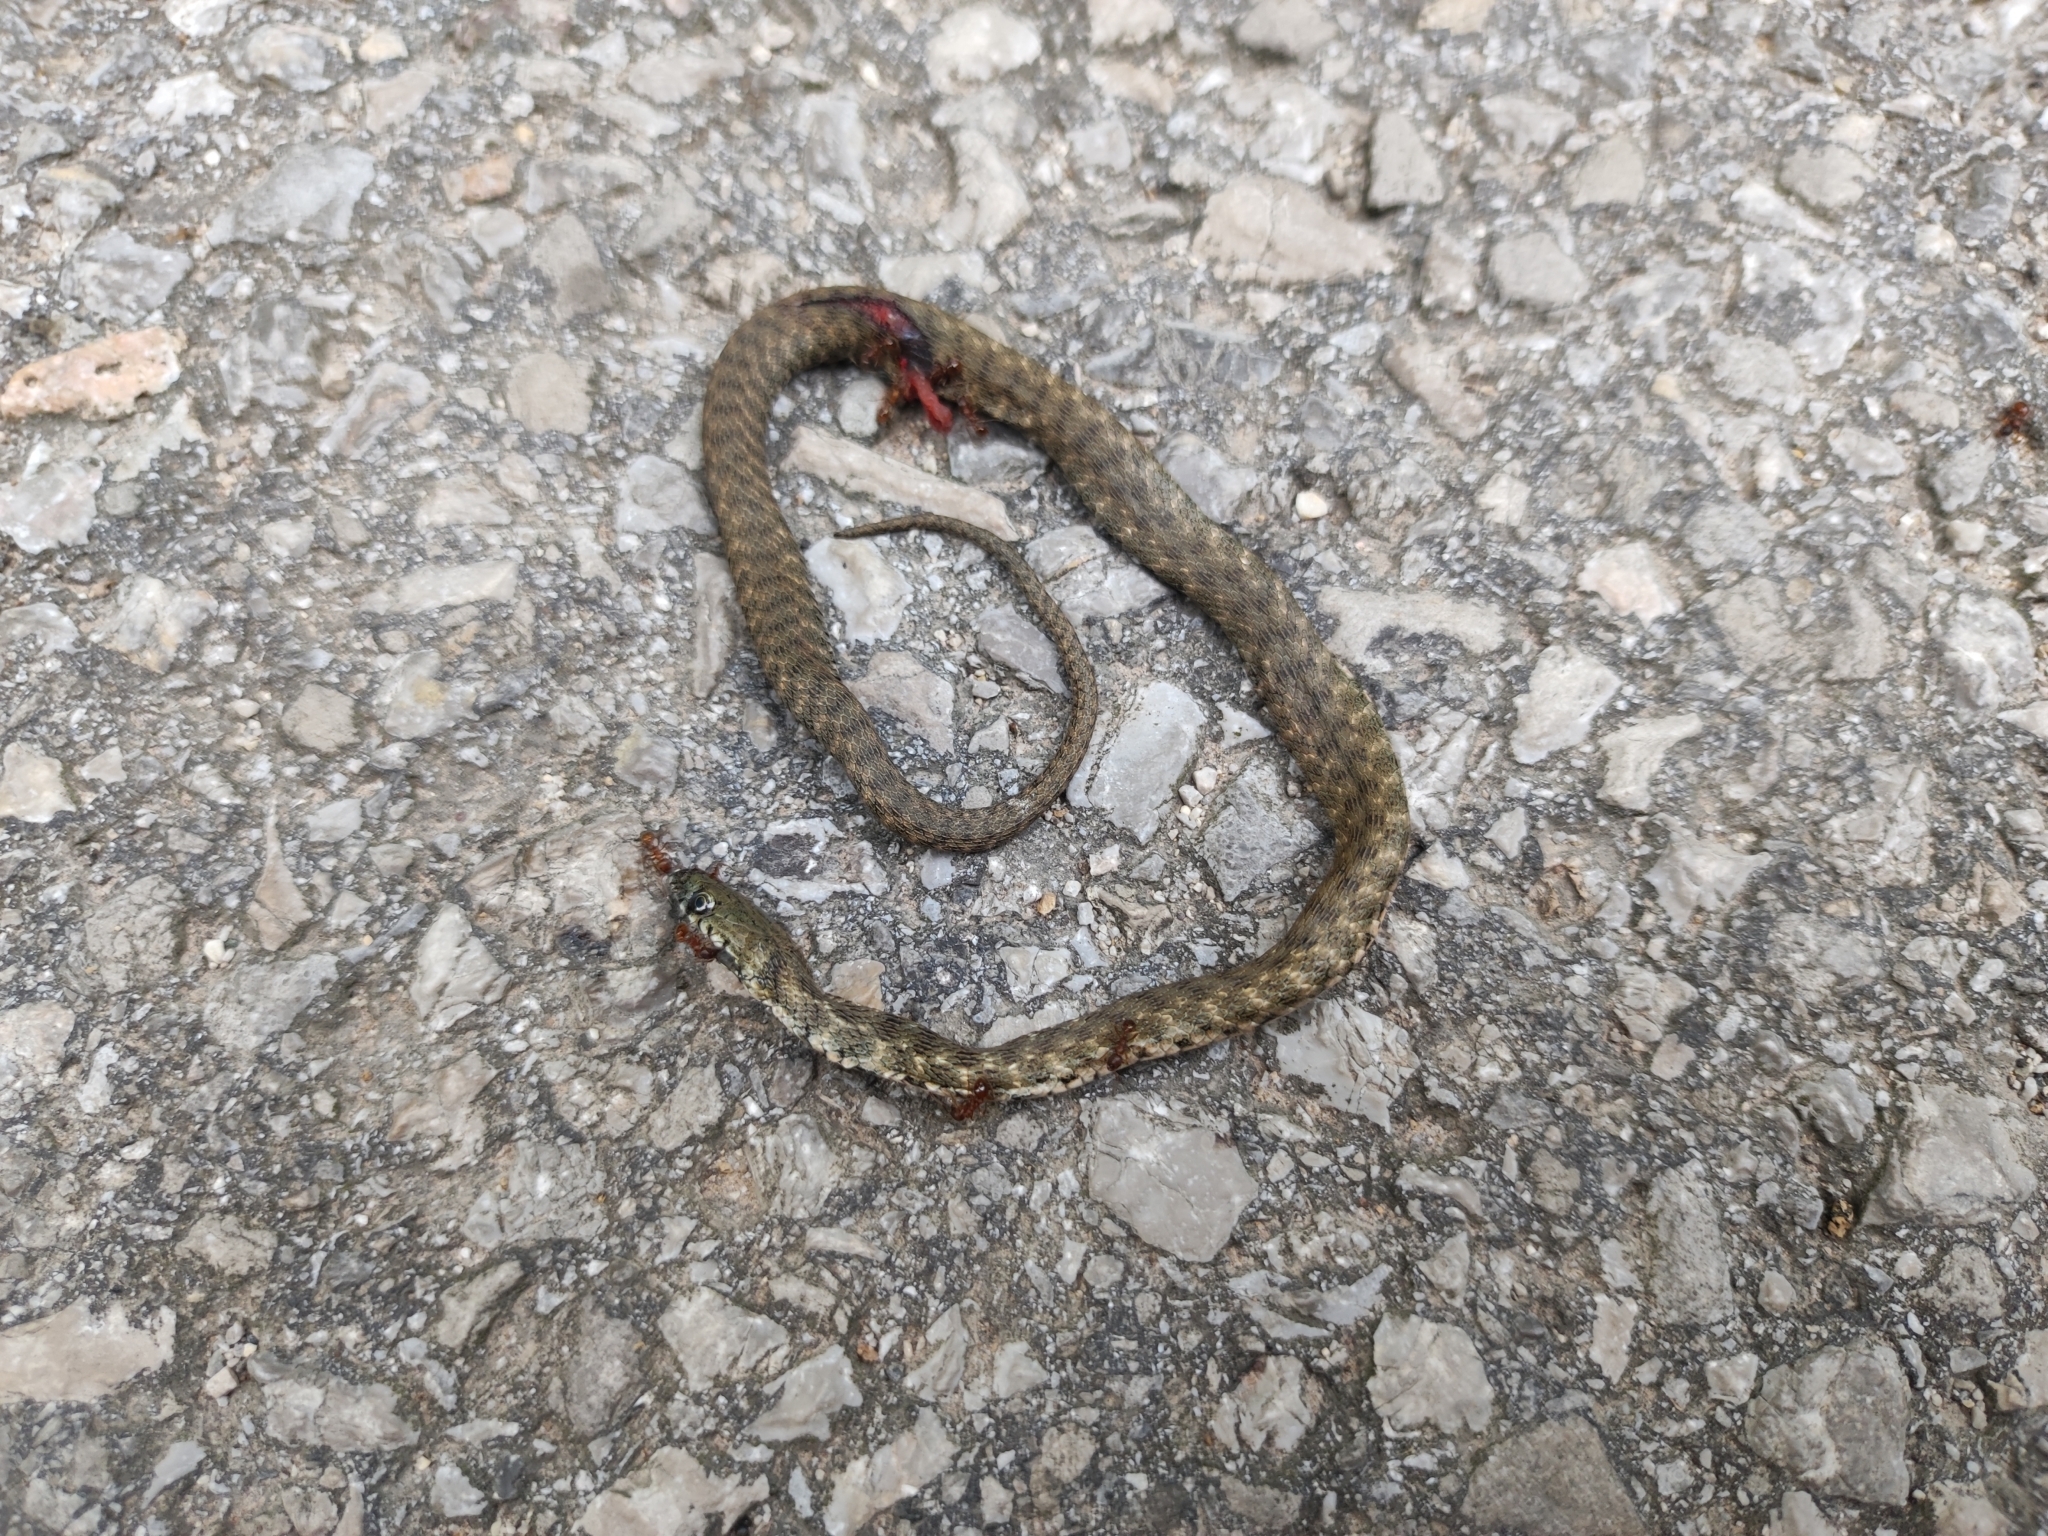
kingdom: Animalia
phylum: Chordata
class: Squamata
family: Colubridae
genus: Natrix
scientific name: Natrix tessellata
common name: Dice snake
